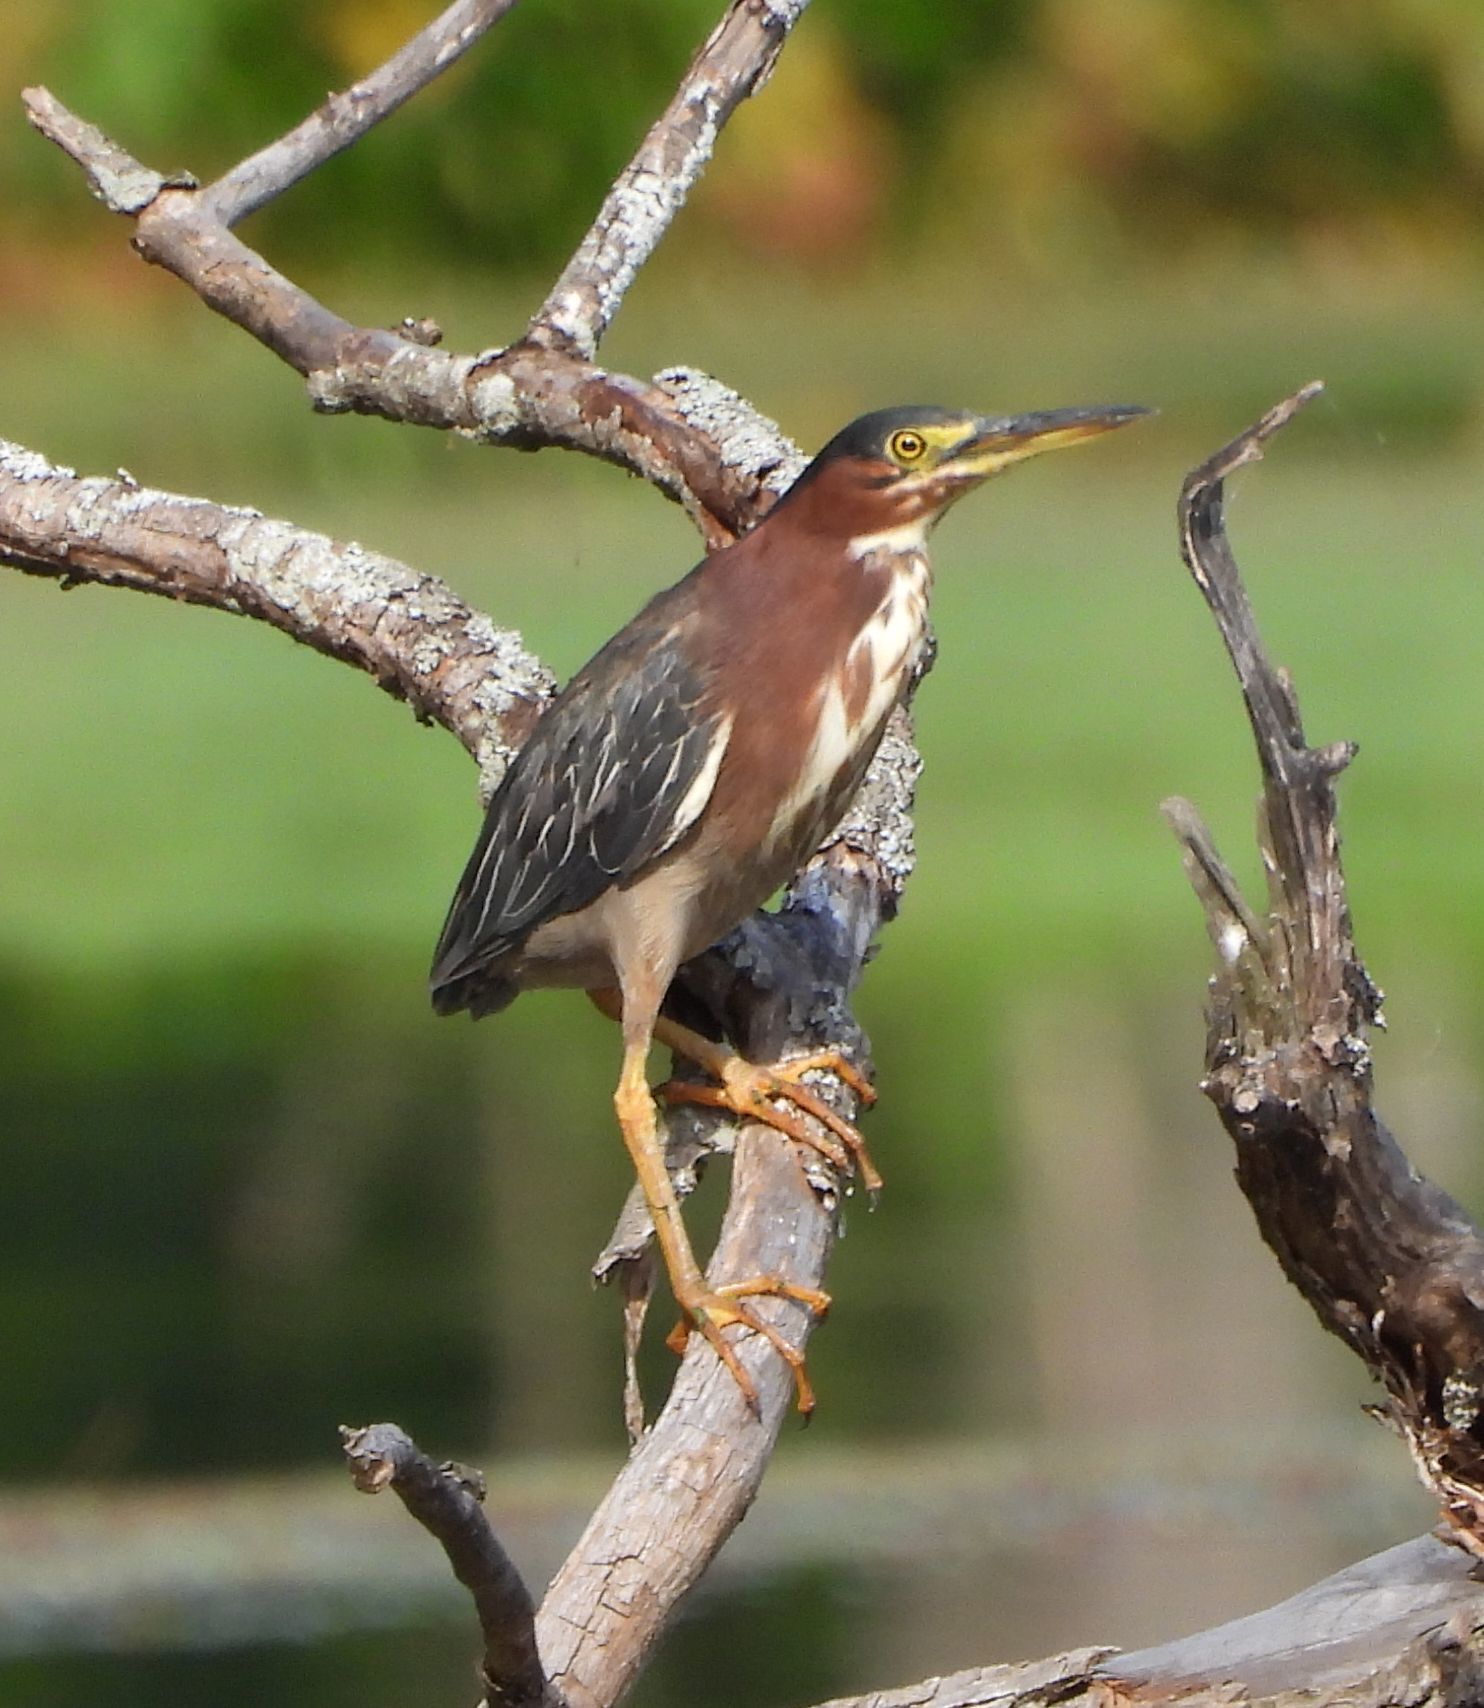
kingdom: Animalia
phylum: Chordata
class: Aves
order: Pelecaniformes
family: Ardeidae
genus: Butorides
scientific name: Butorides virescens
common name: Green heron
